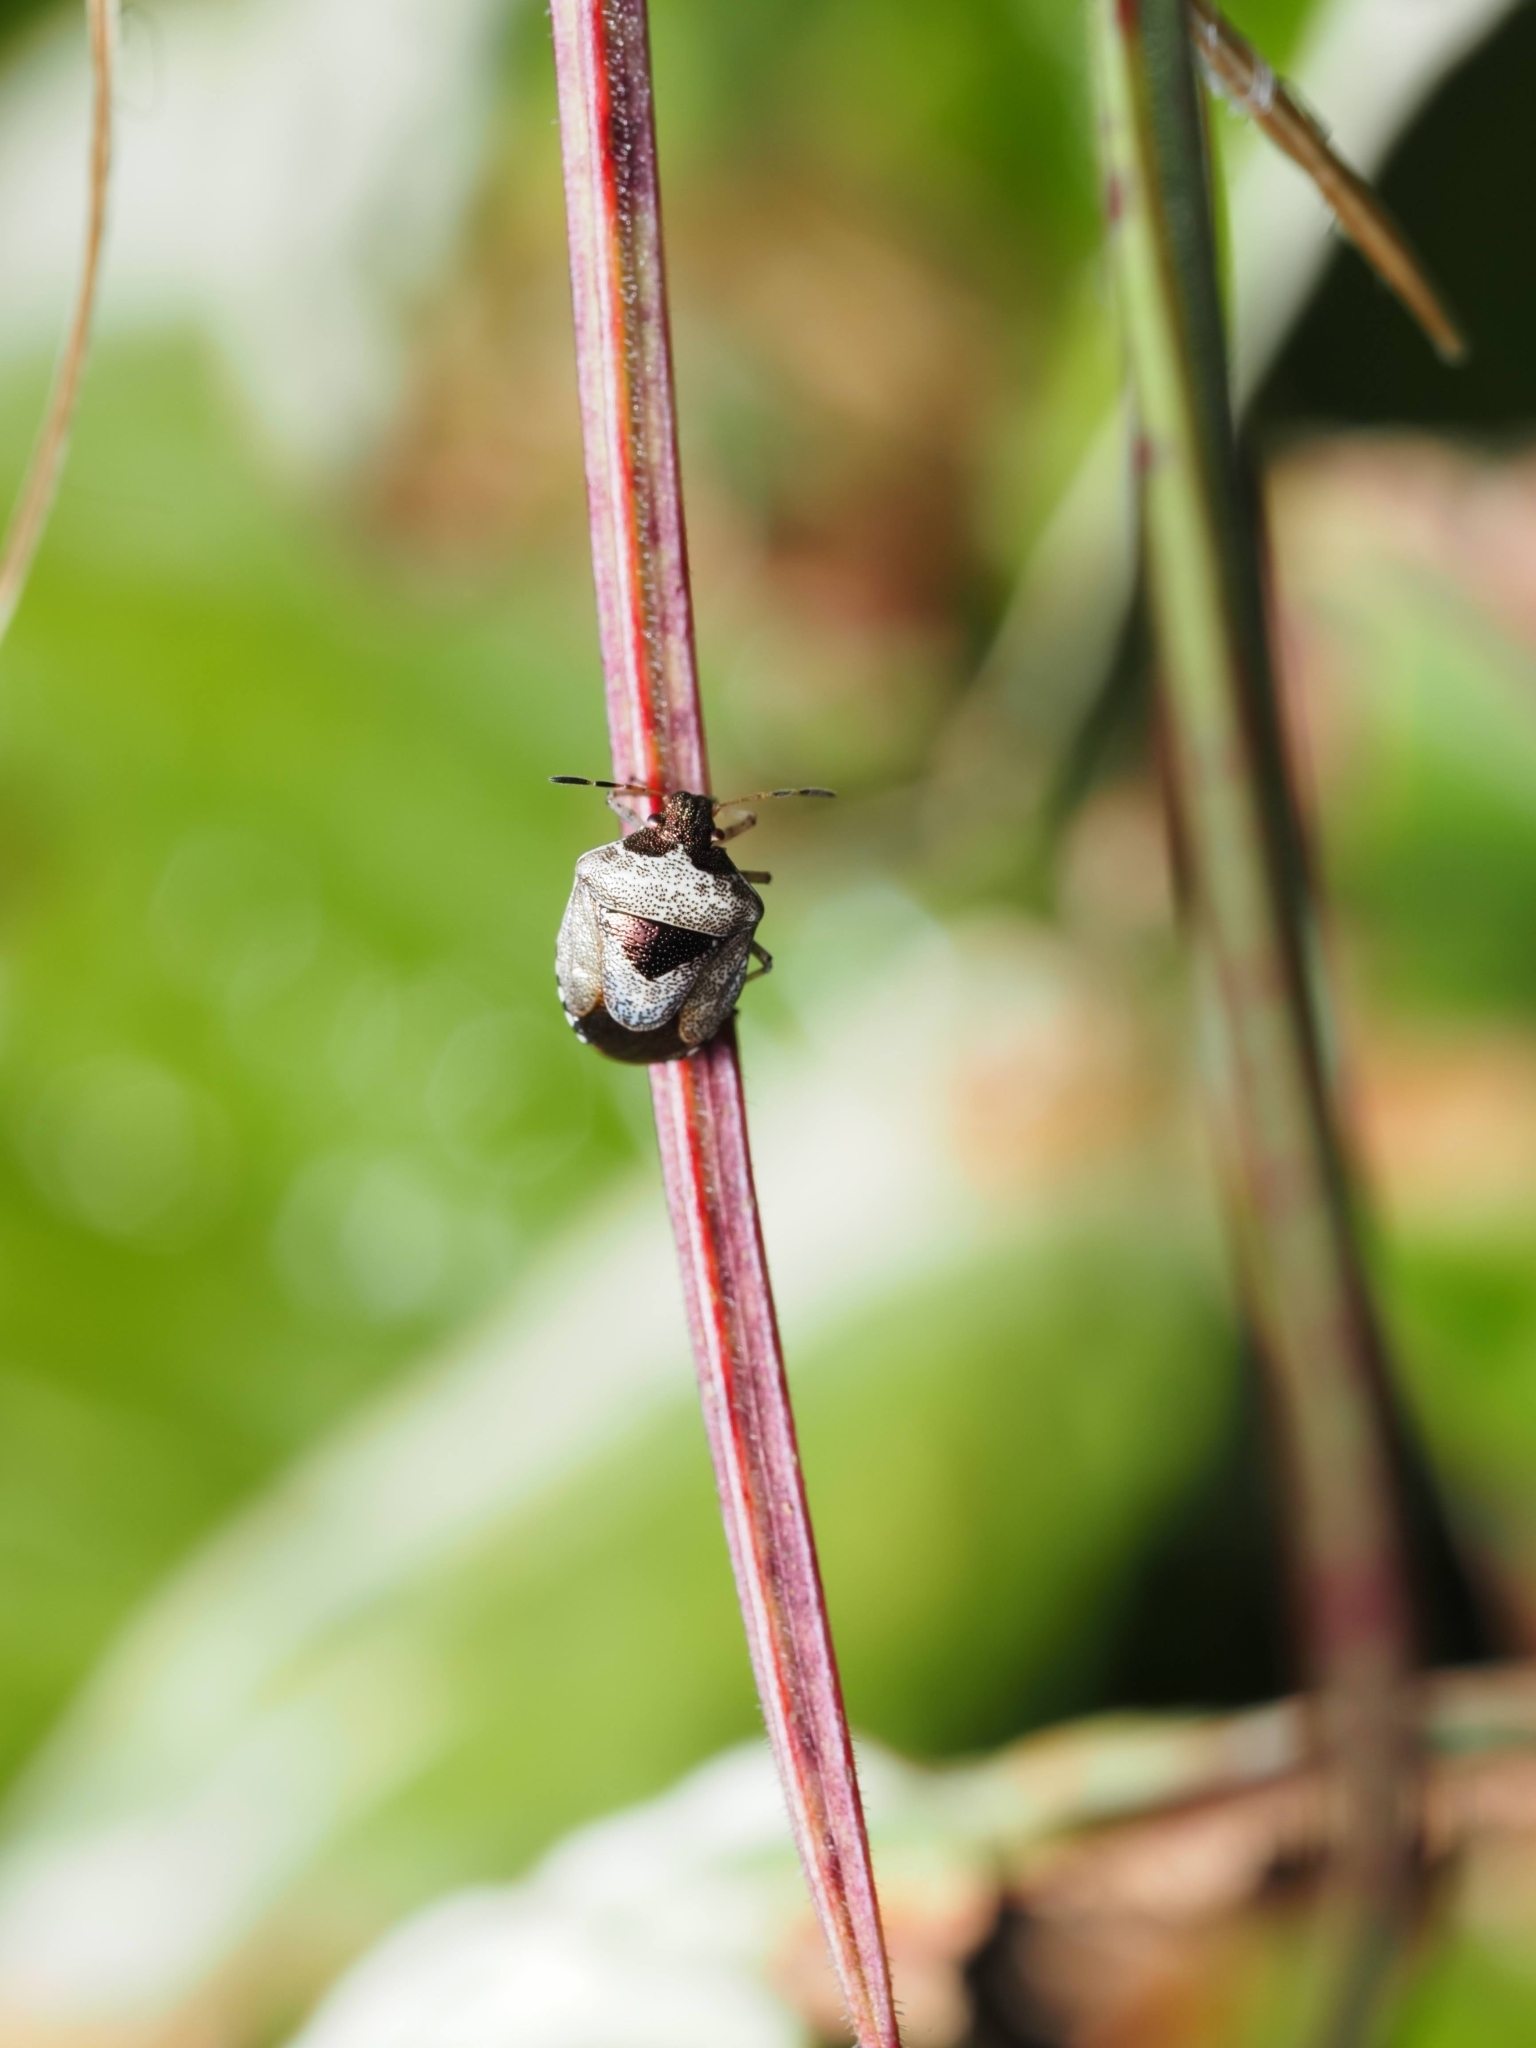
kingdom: Animalia
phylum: Arthropoda
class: Insecta
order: Hemiptera
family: Pentatomidae
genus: Eysarcoris
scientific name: Eysarcoris venustissimus
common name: Woundwort shieldbug
